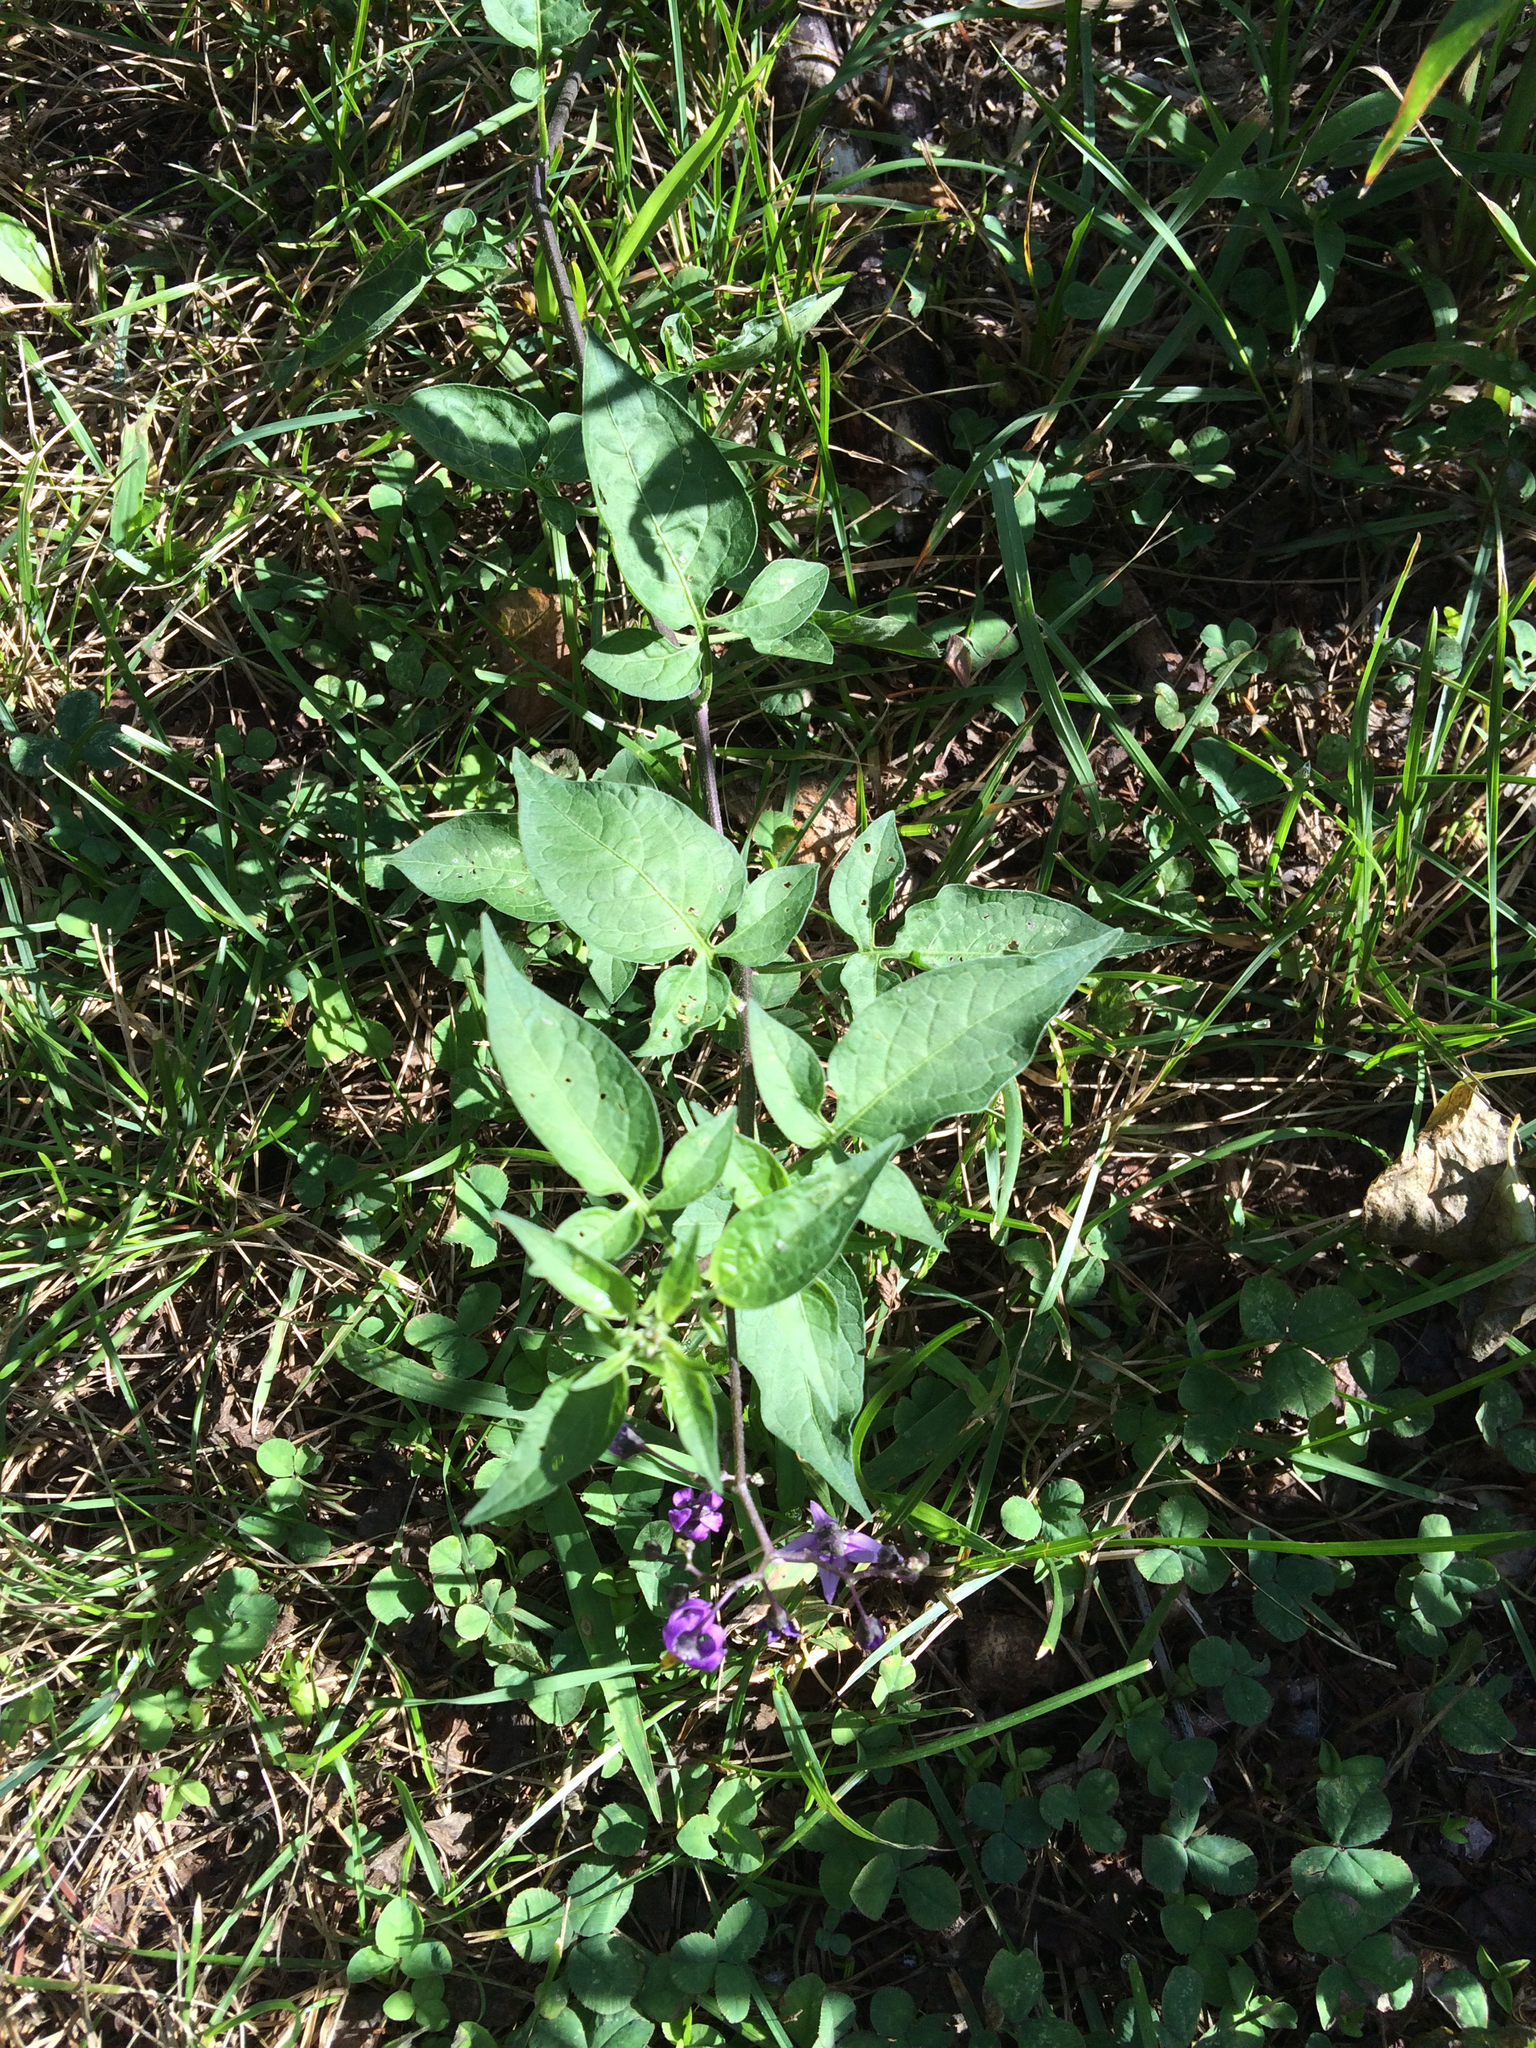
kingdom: Plantae
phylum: Tracheophyta
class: Magnoliopsida
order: Solanales
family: Solanaceae
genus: Solanum
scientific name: Solanum dulcamara
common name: Climbing nightshade
